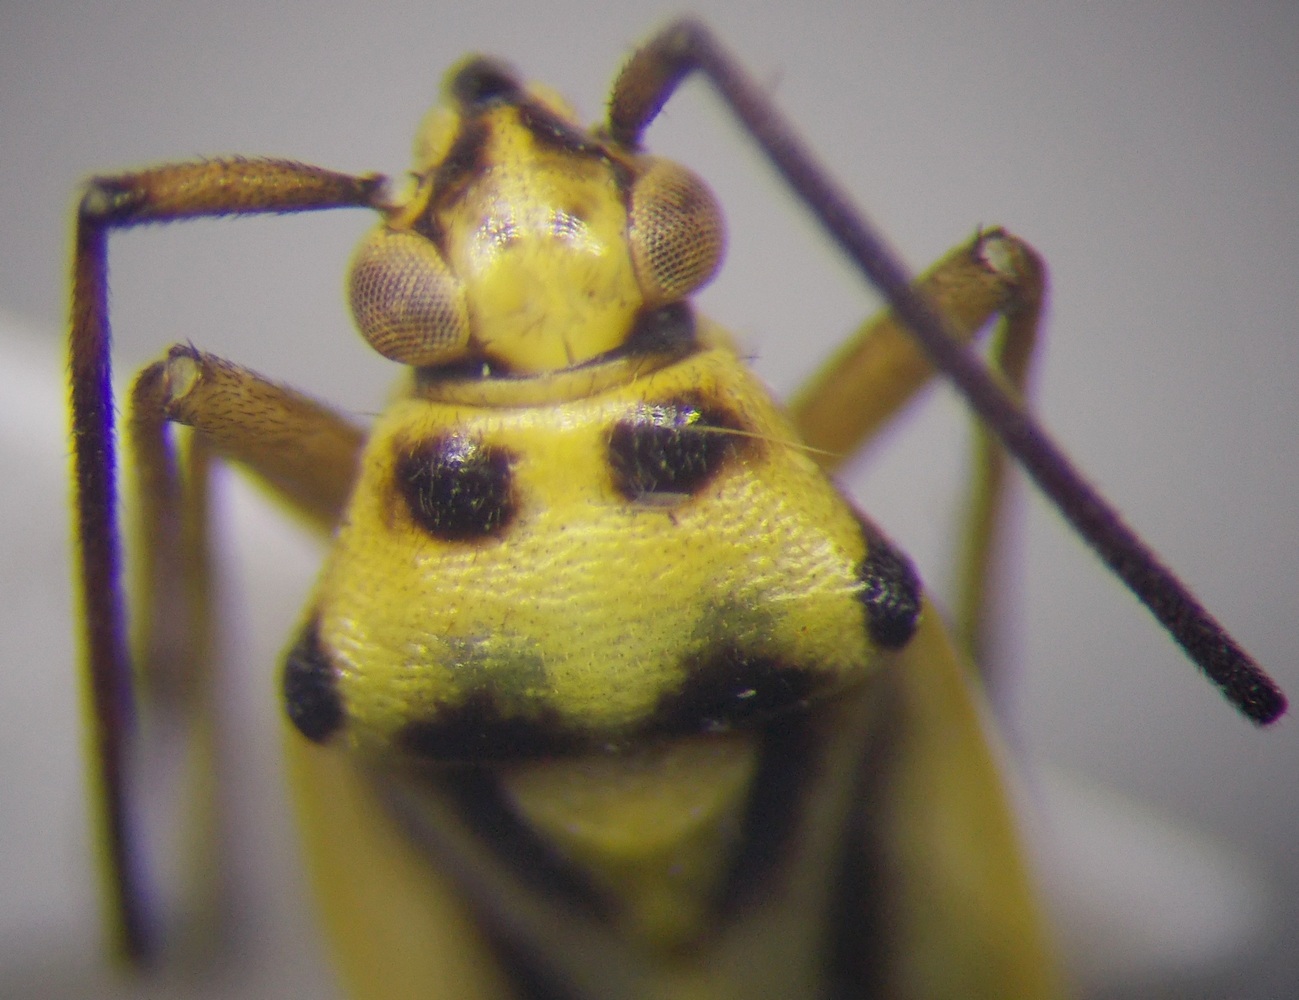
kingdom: Animalia
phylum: Arthropoda
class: Insecta
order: Hemiptera
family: Miridae
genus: Stenotus
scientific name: Stenotus tesquorum
